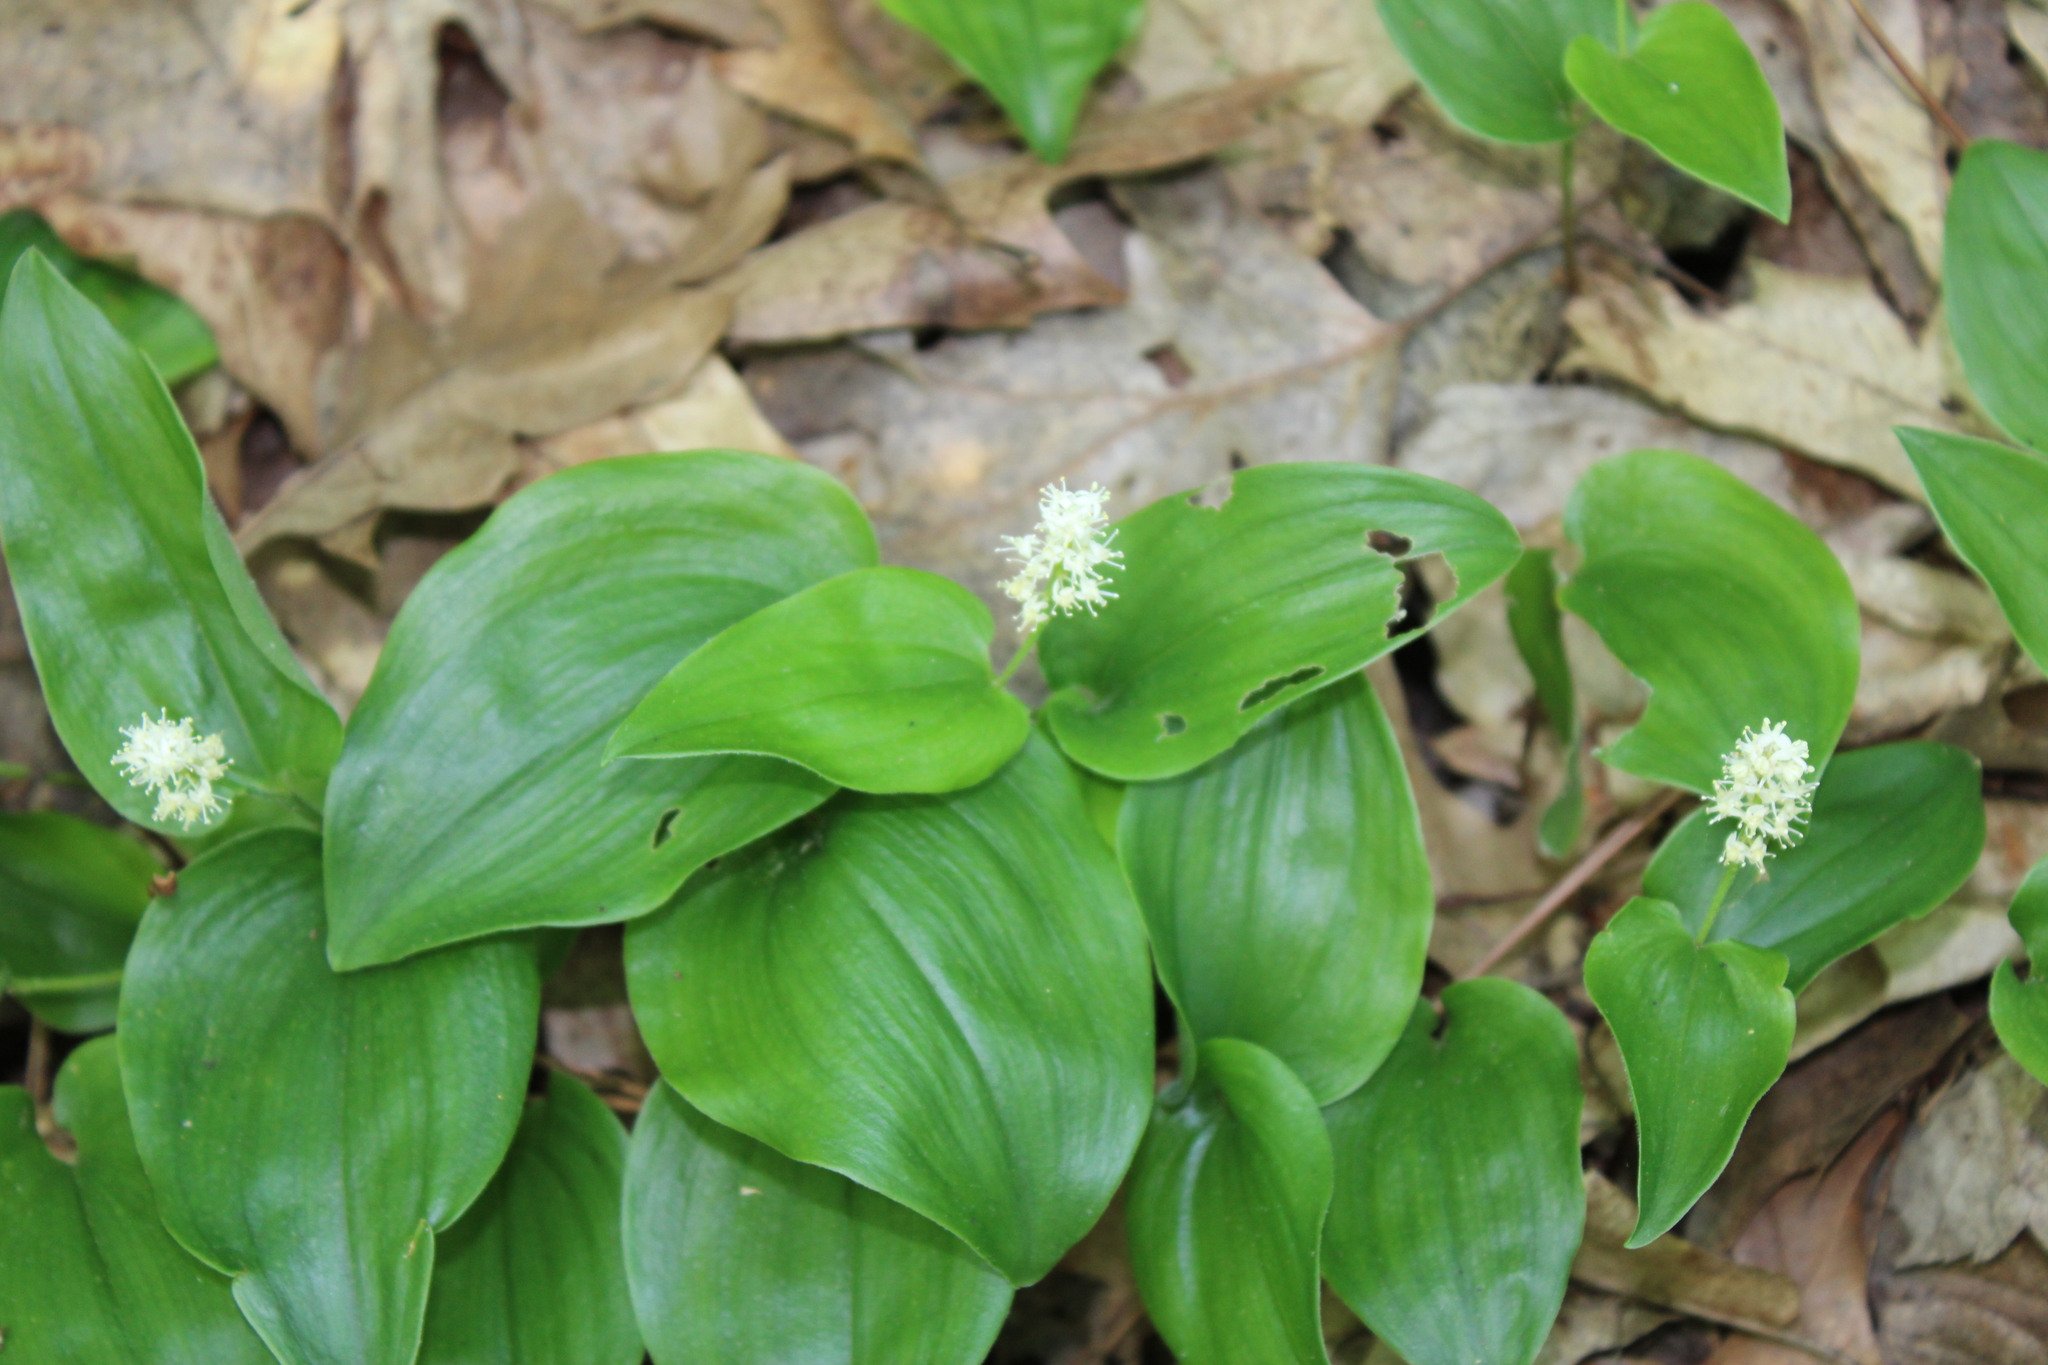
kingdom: Plantae
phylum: Tracheophyta
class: Liliopsida
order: Asparagales
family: Asparagaceae
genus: Maianthemum
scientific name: Maianthemum canadense
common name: False lily-of-the-valley
